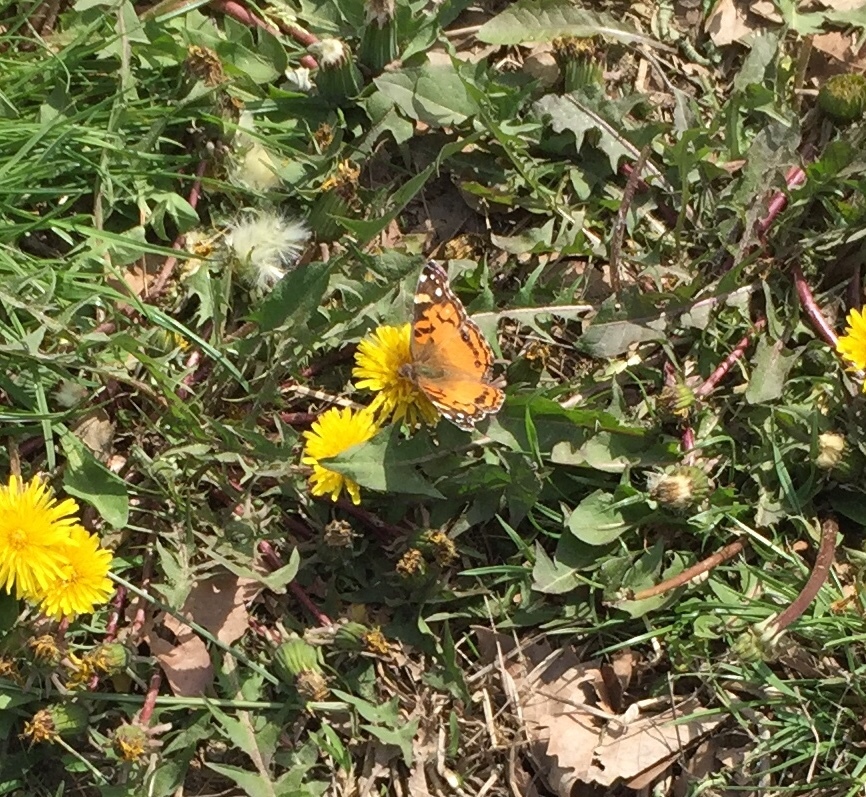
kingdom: Animalia
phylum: Arthropoda
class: Insecta
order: Lepidoptera
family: Nymphalidae
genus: Vanessa
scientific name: Vanessa virginiensis
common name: American lady
